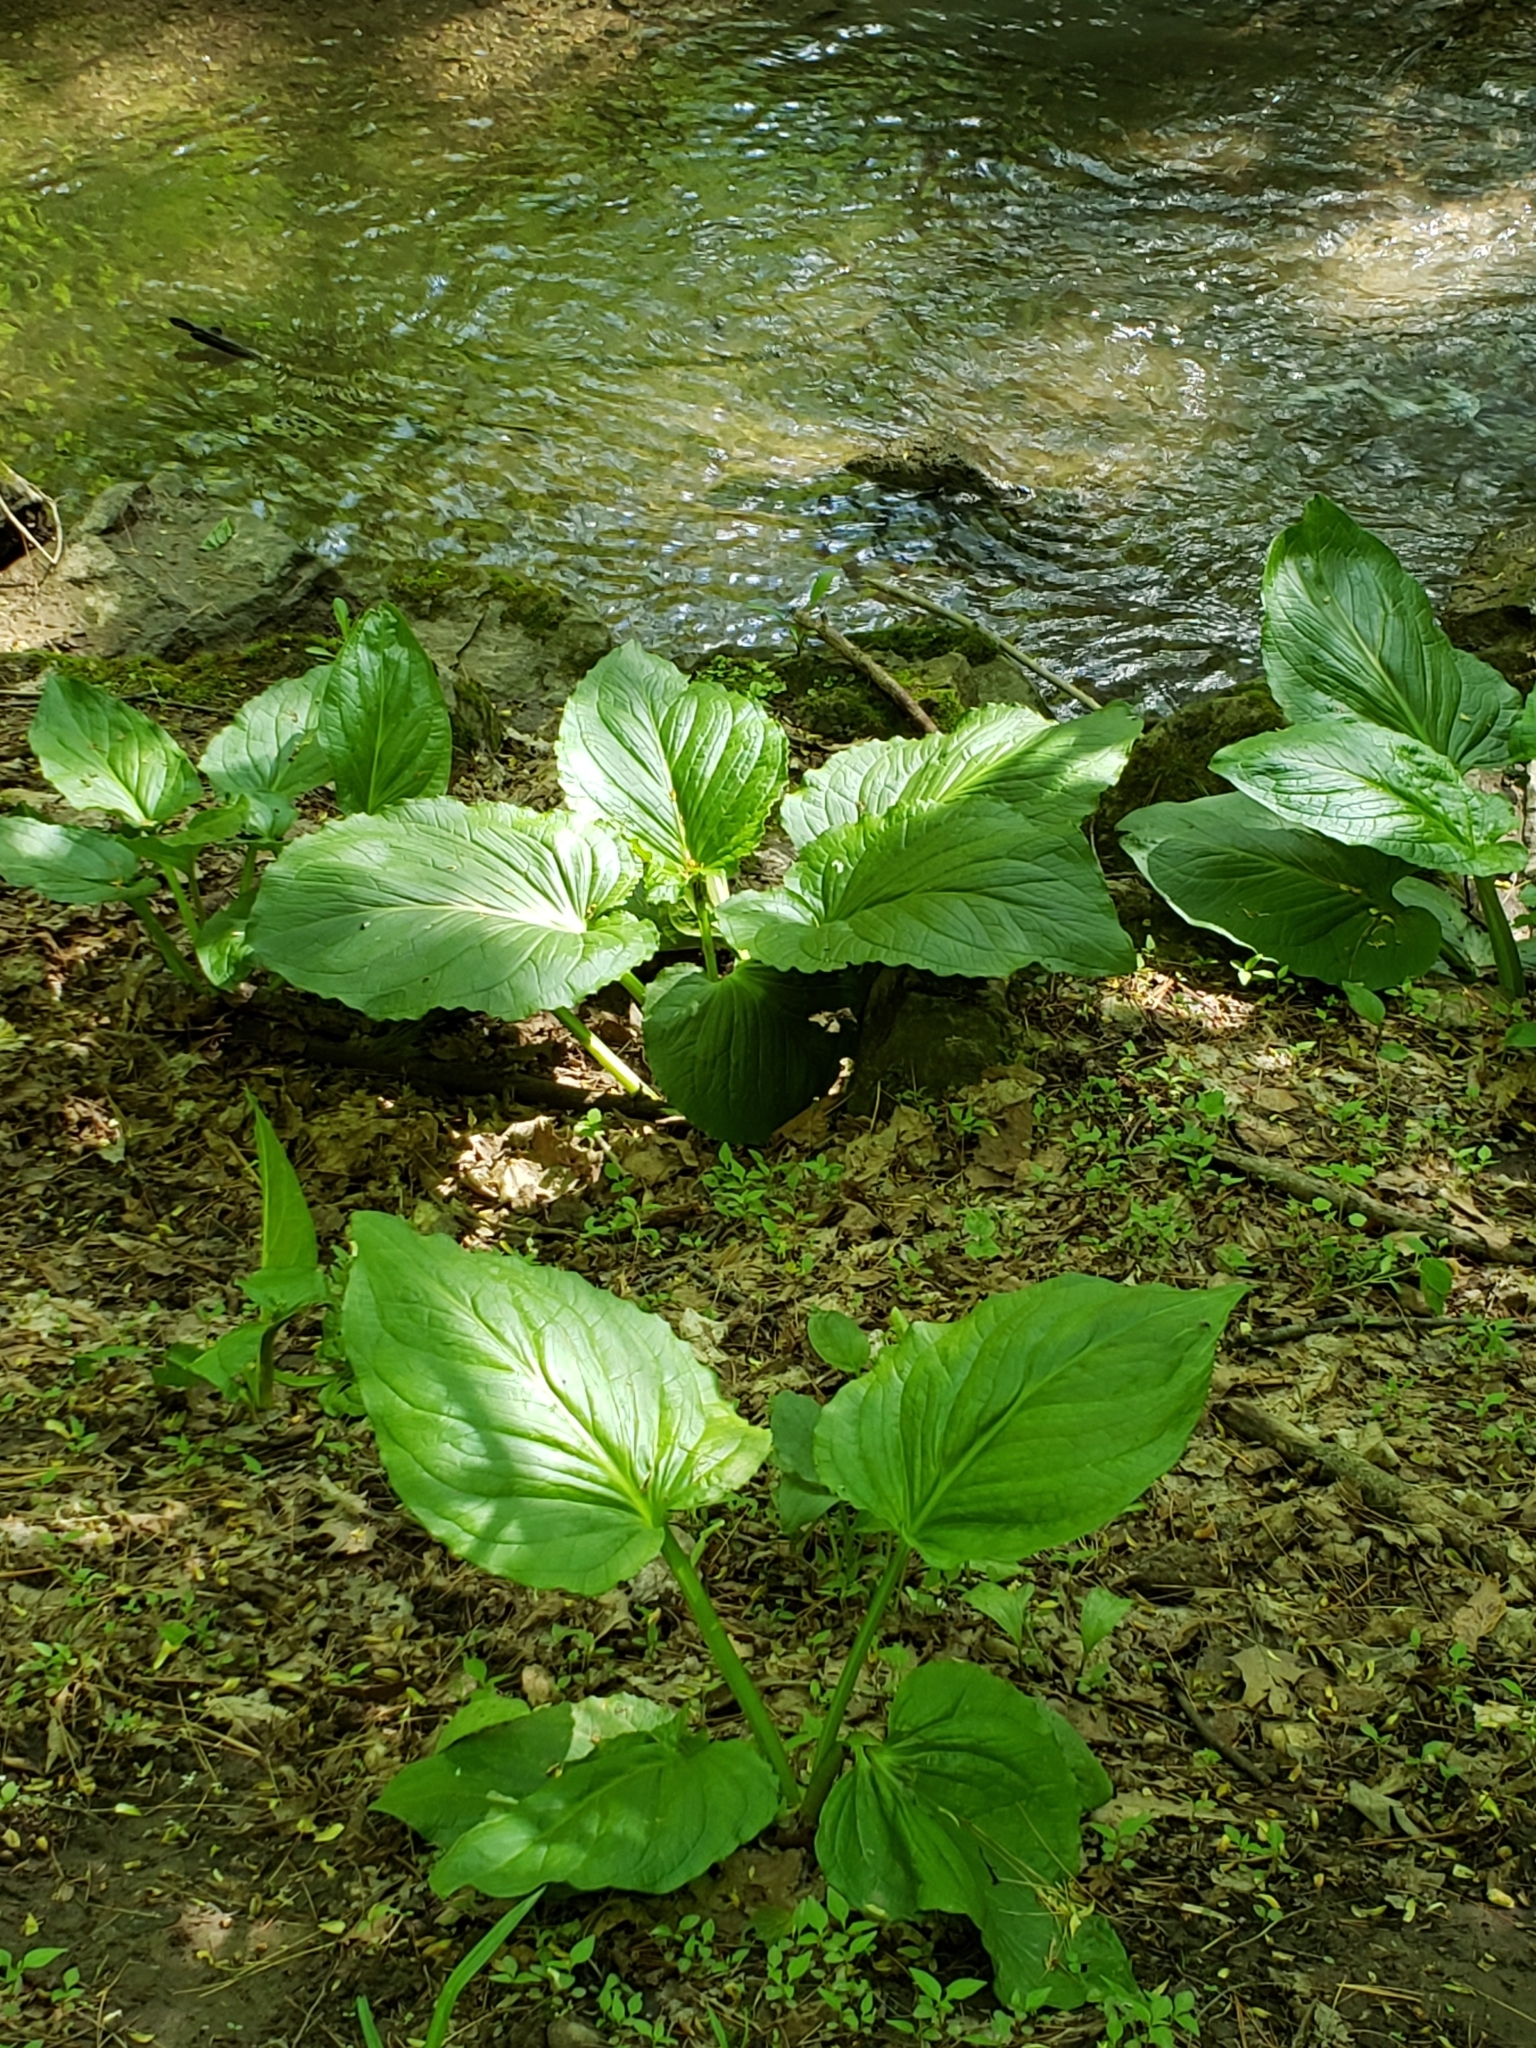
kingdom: Plantae
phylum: Tracheophyta
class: Liliopsida
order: Alismatales
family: Araceae
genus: Symplocarpus
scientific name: Symplocarpus foetidus
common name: Eastern skunk cabbage
